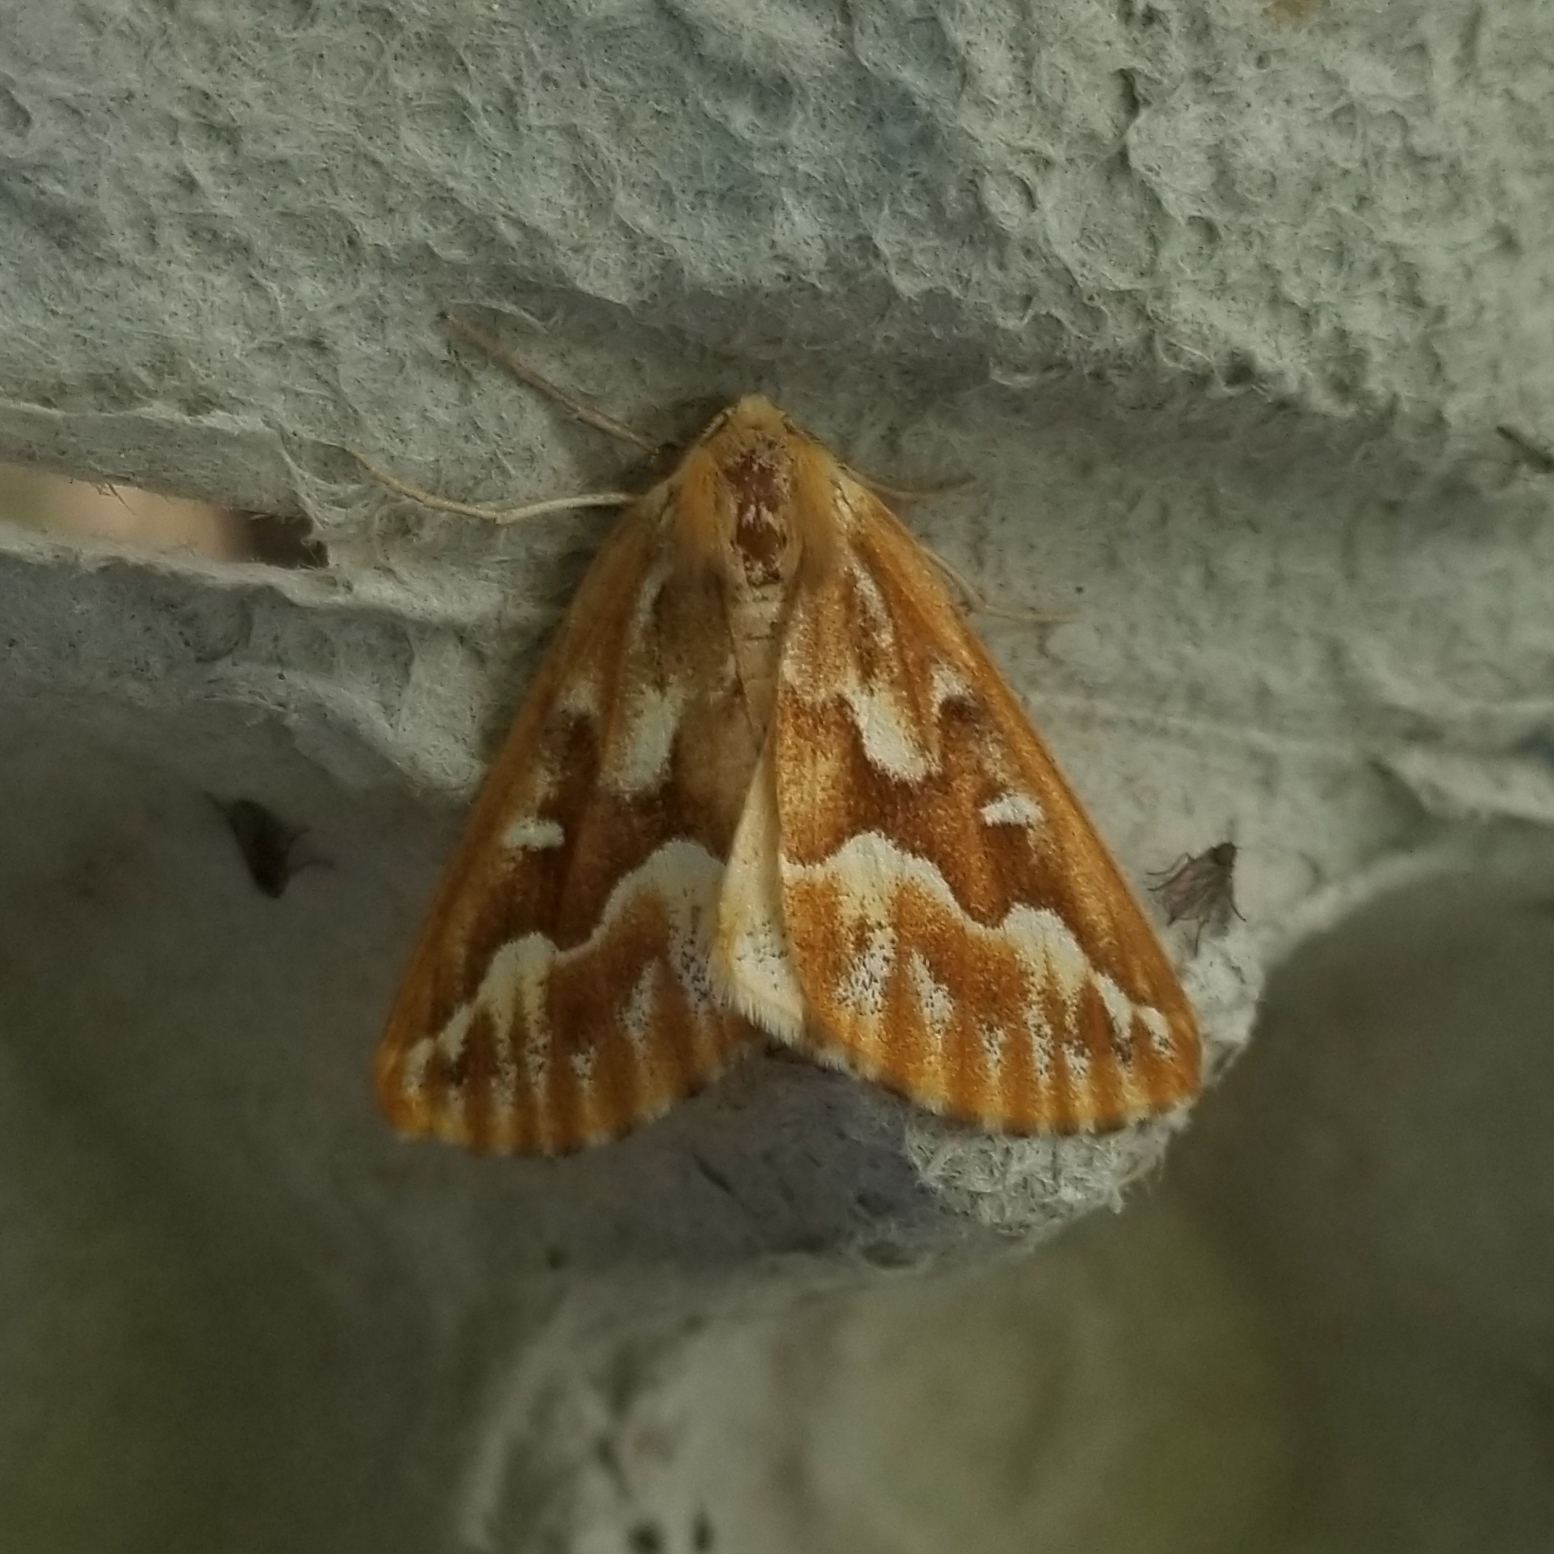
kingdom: Animalia
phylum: Arthropoda
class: Insecta
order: Lepidoptera
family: Geometridae
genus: Caripeta
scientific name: Caripeta piniata
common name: Northern pine looper moth
